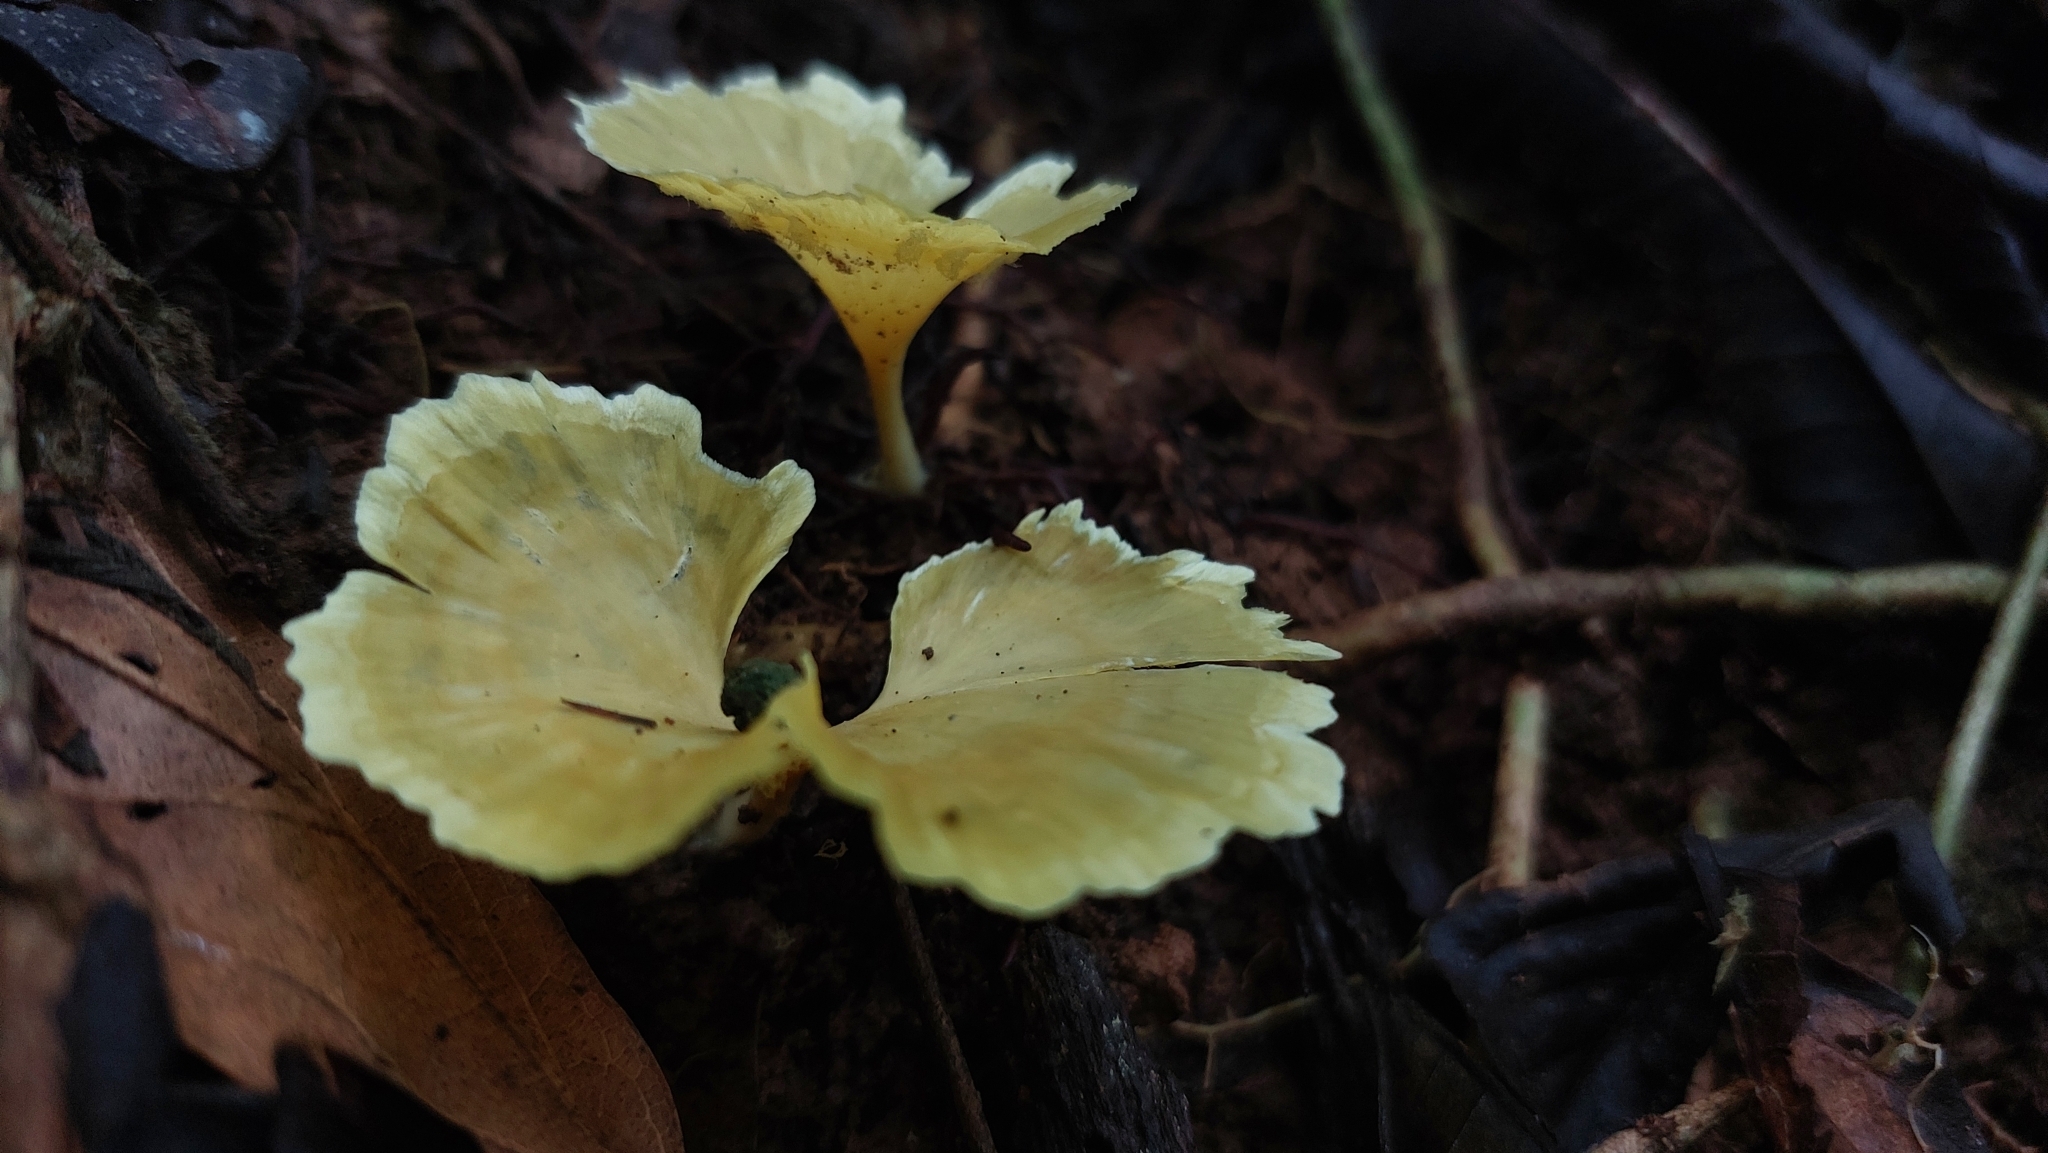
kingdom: Fungi
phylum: Basidiomycota
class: Agaricomycetes
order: Hymenochaetales
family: Rickenellaceae
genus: Cotylidia
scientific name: Cotylidia aurantiaca
